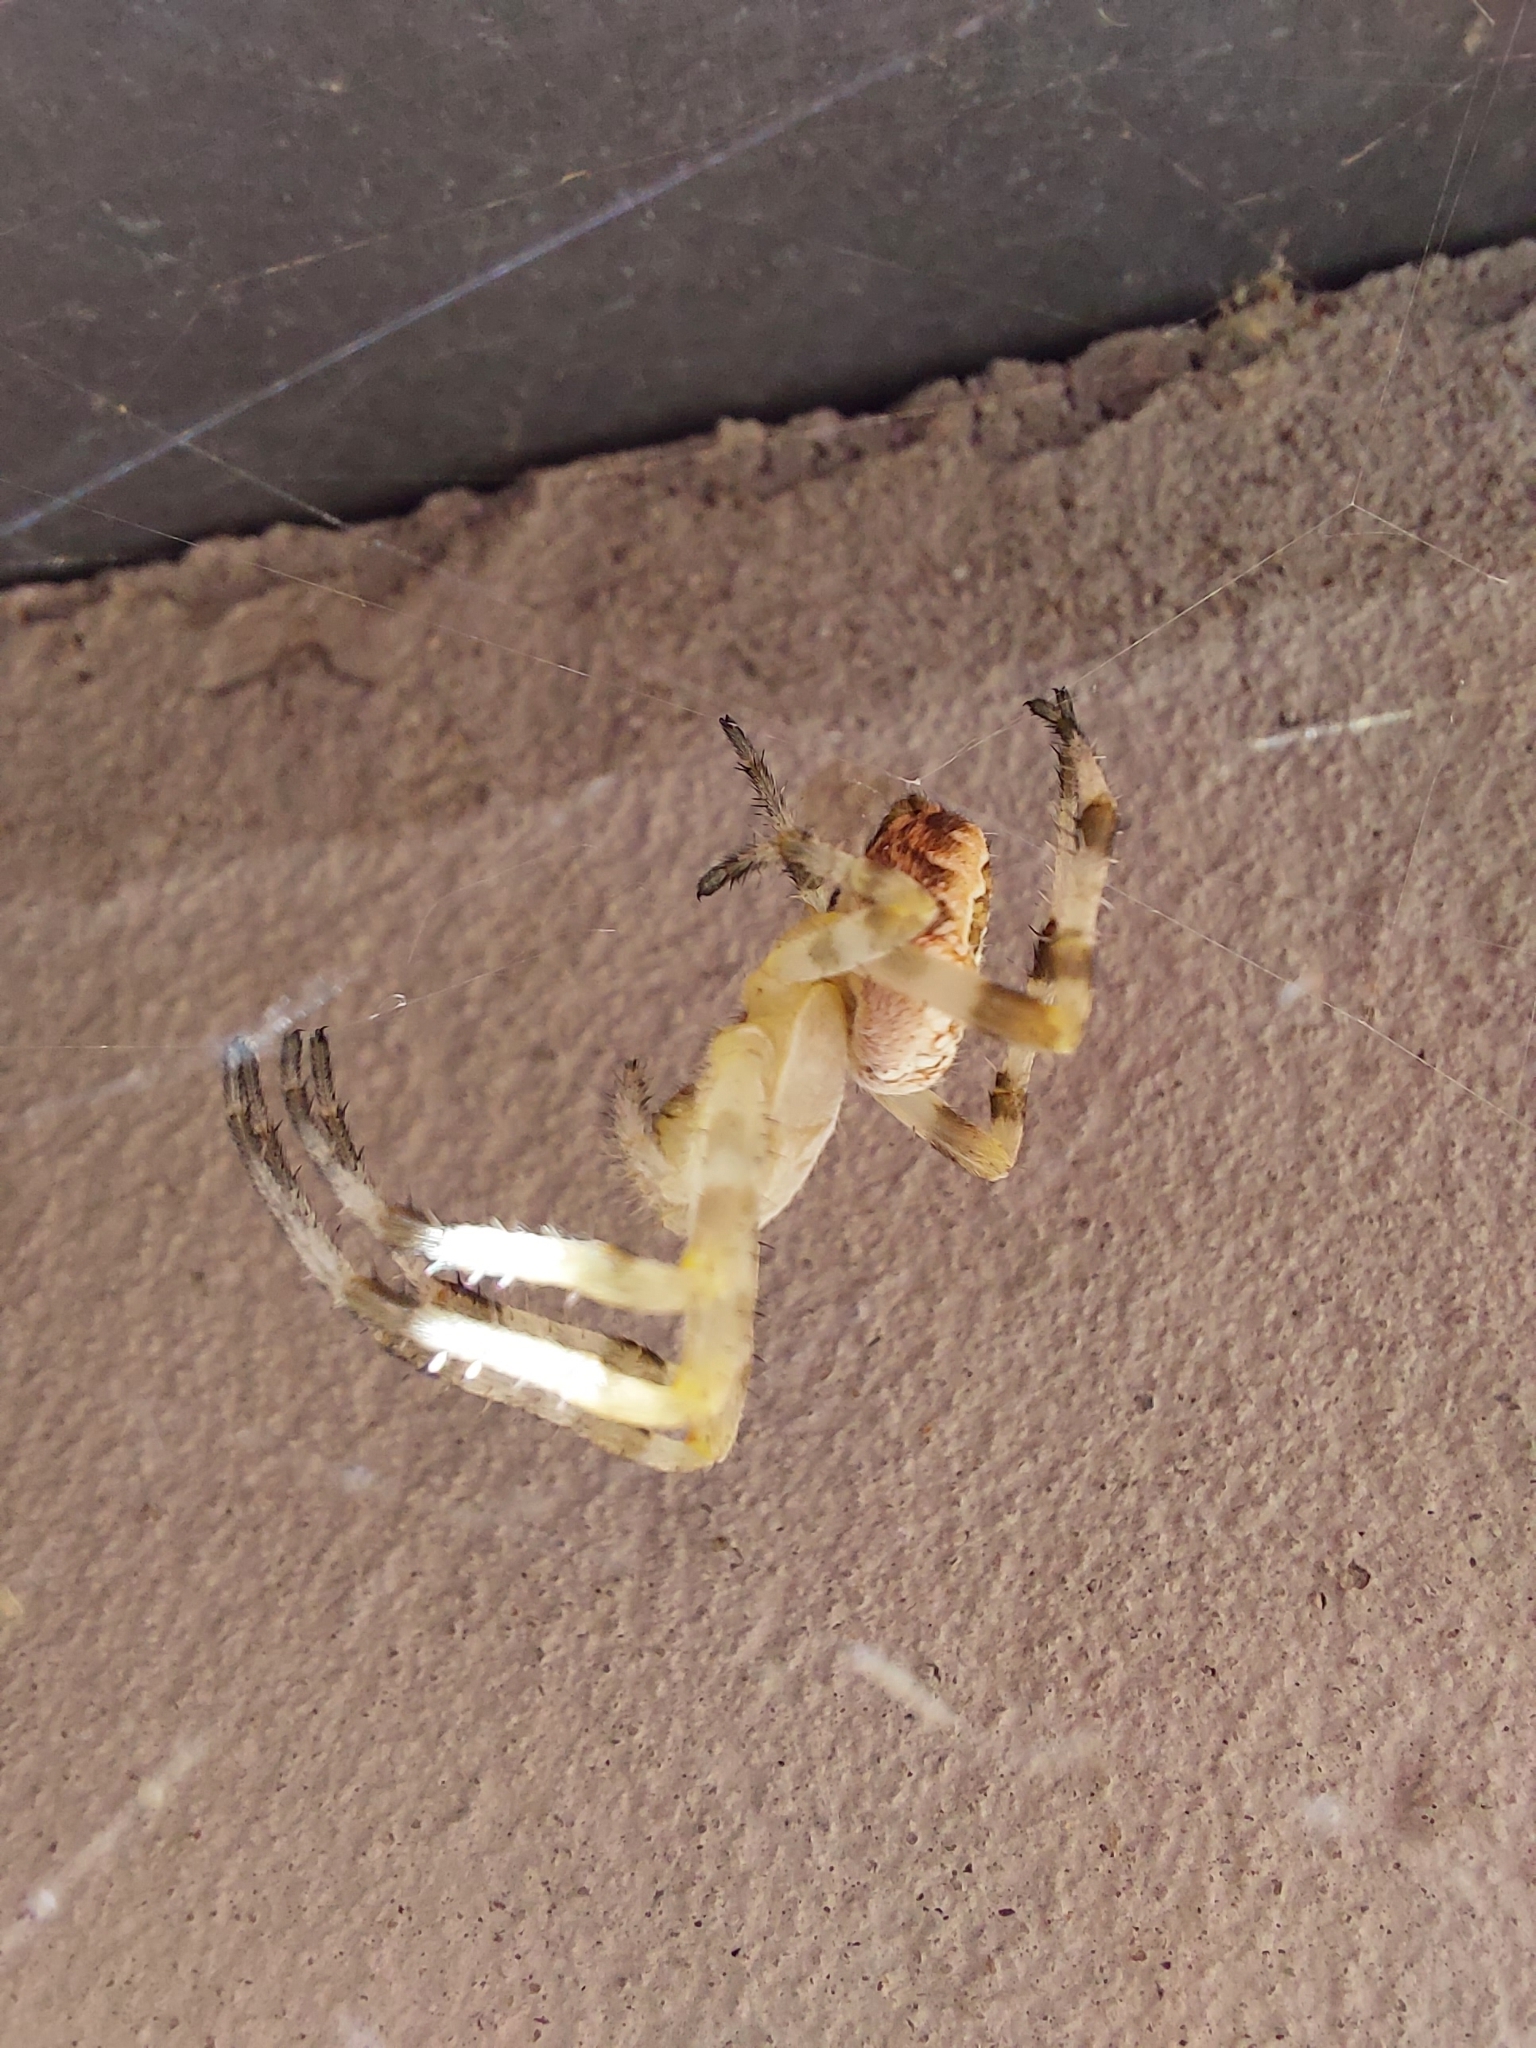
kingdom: Animalia
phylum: Arthropoda
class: Arachnida
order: Araneae
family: Araneidae
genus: Araneus
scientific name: Araneus diadematus
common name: Cross orbweaver
